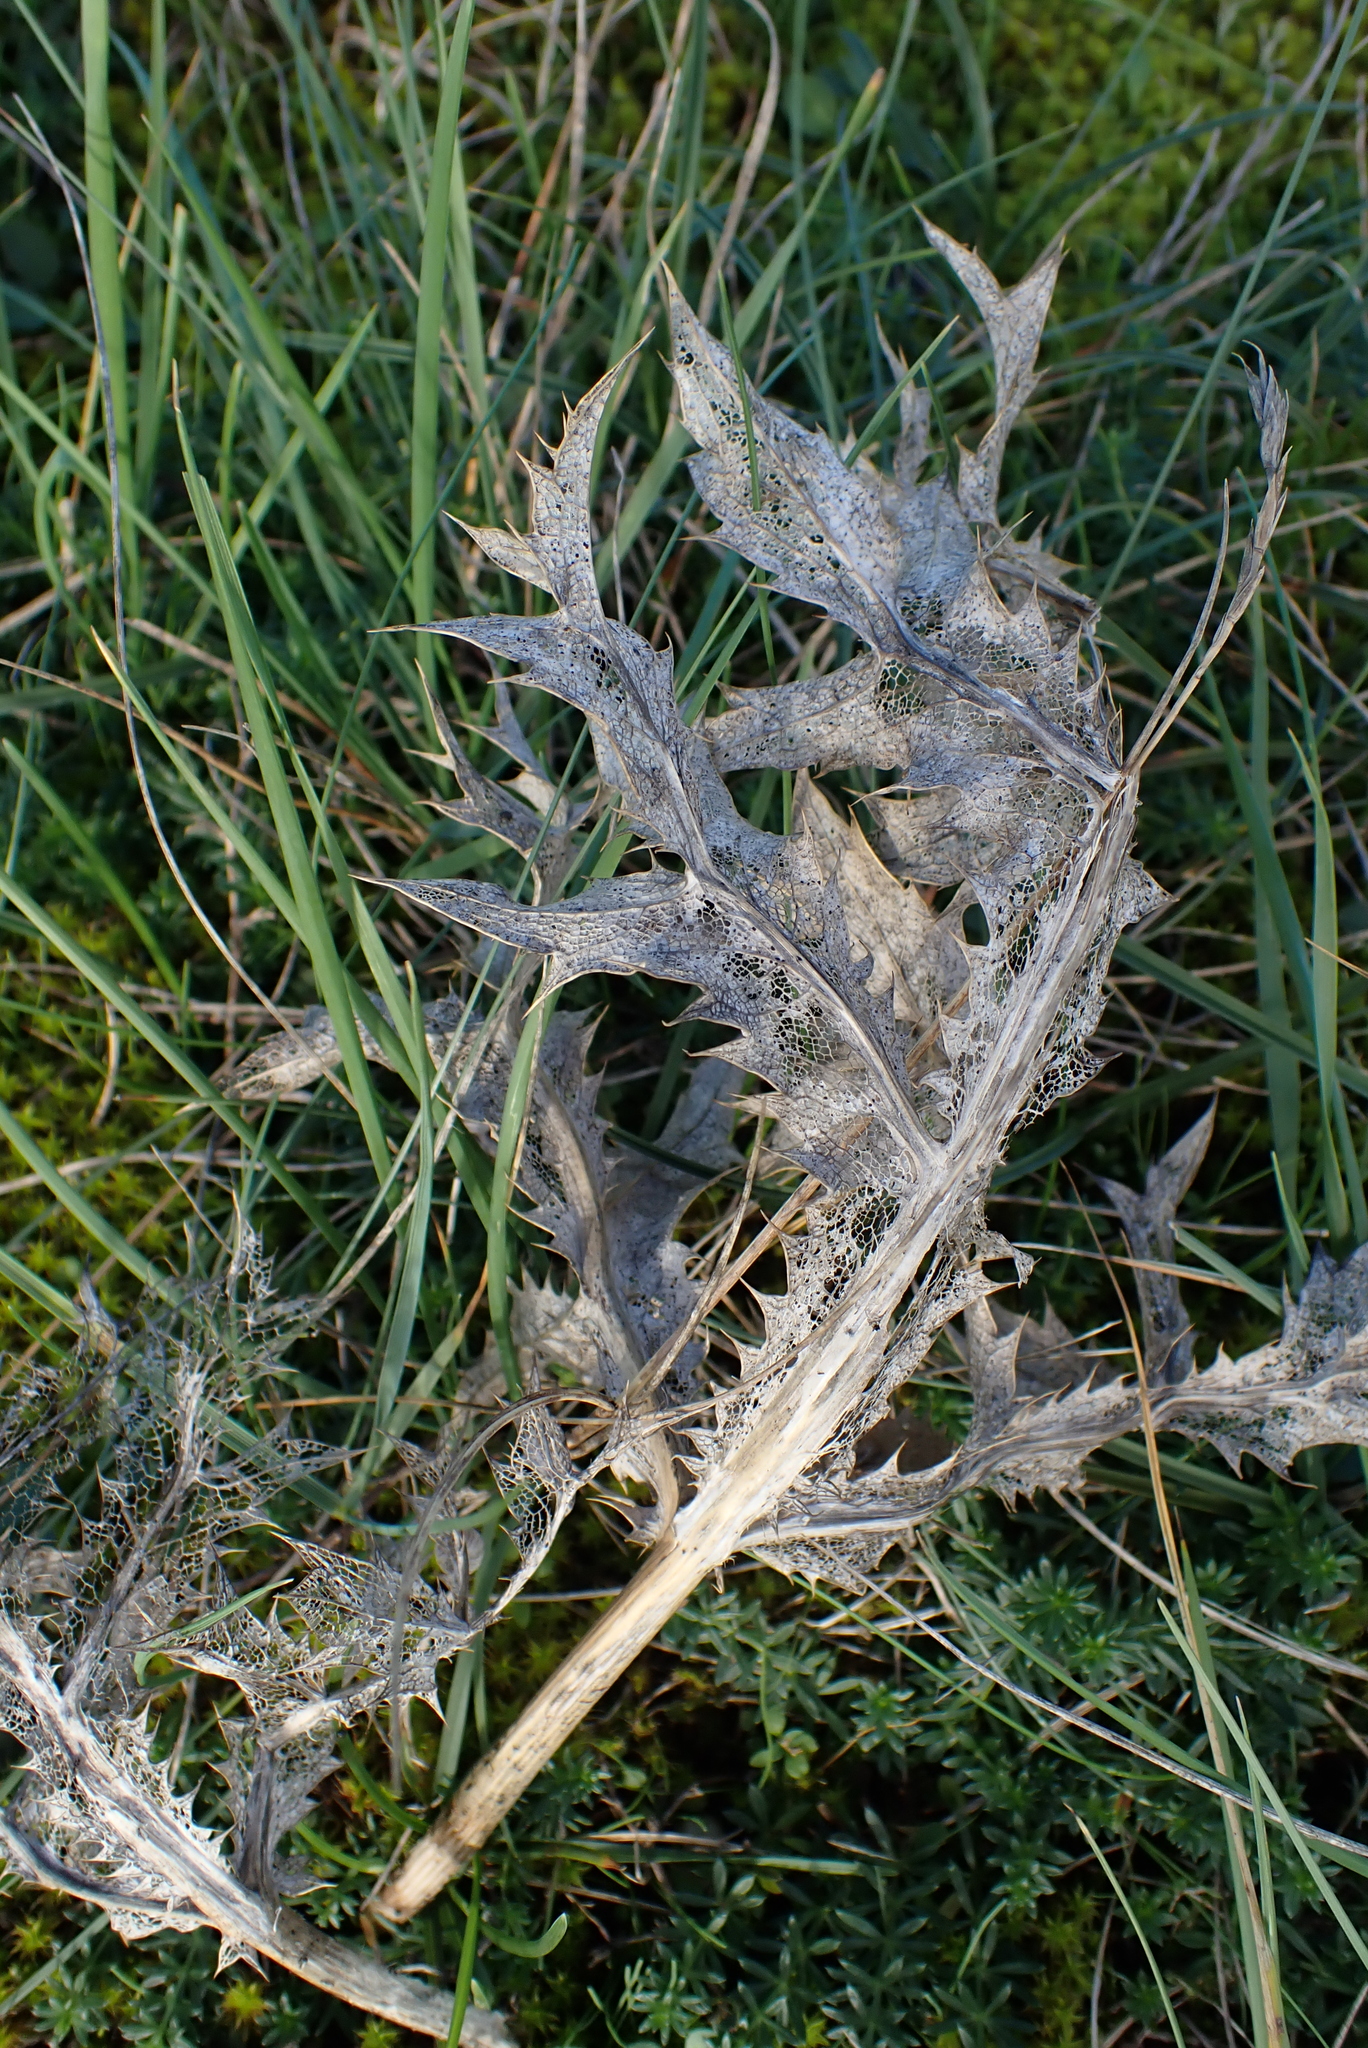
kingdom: Plantae
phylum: Tracheophyta
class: Magnoliopsida
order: Apiales
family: Apiaceae
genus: Eryngium
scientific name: Eryngium campestre
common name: Field eryngo
